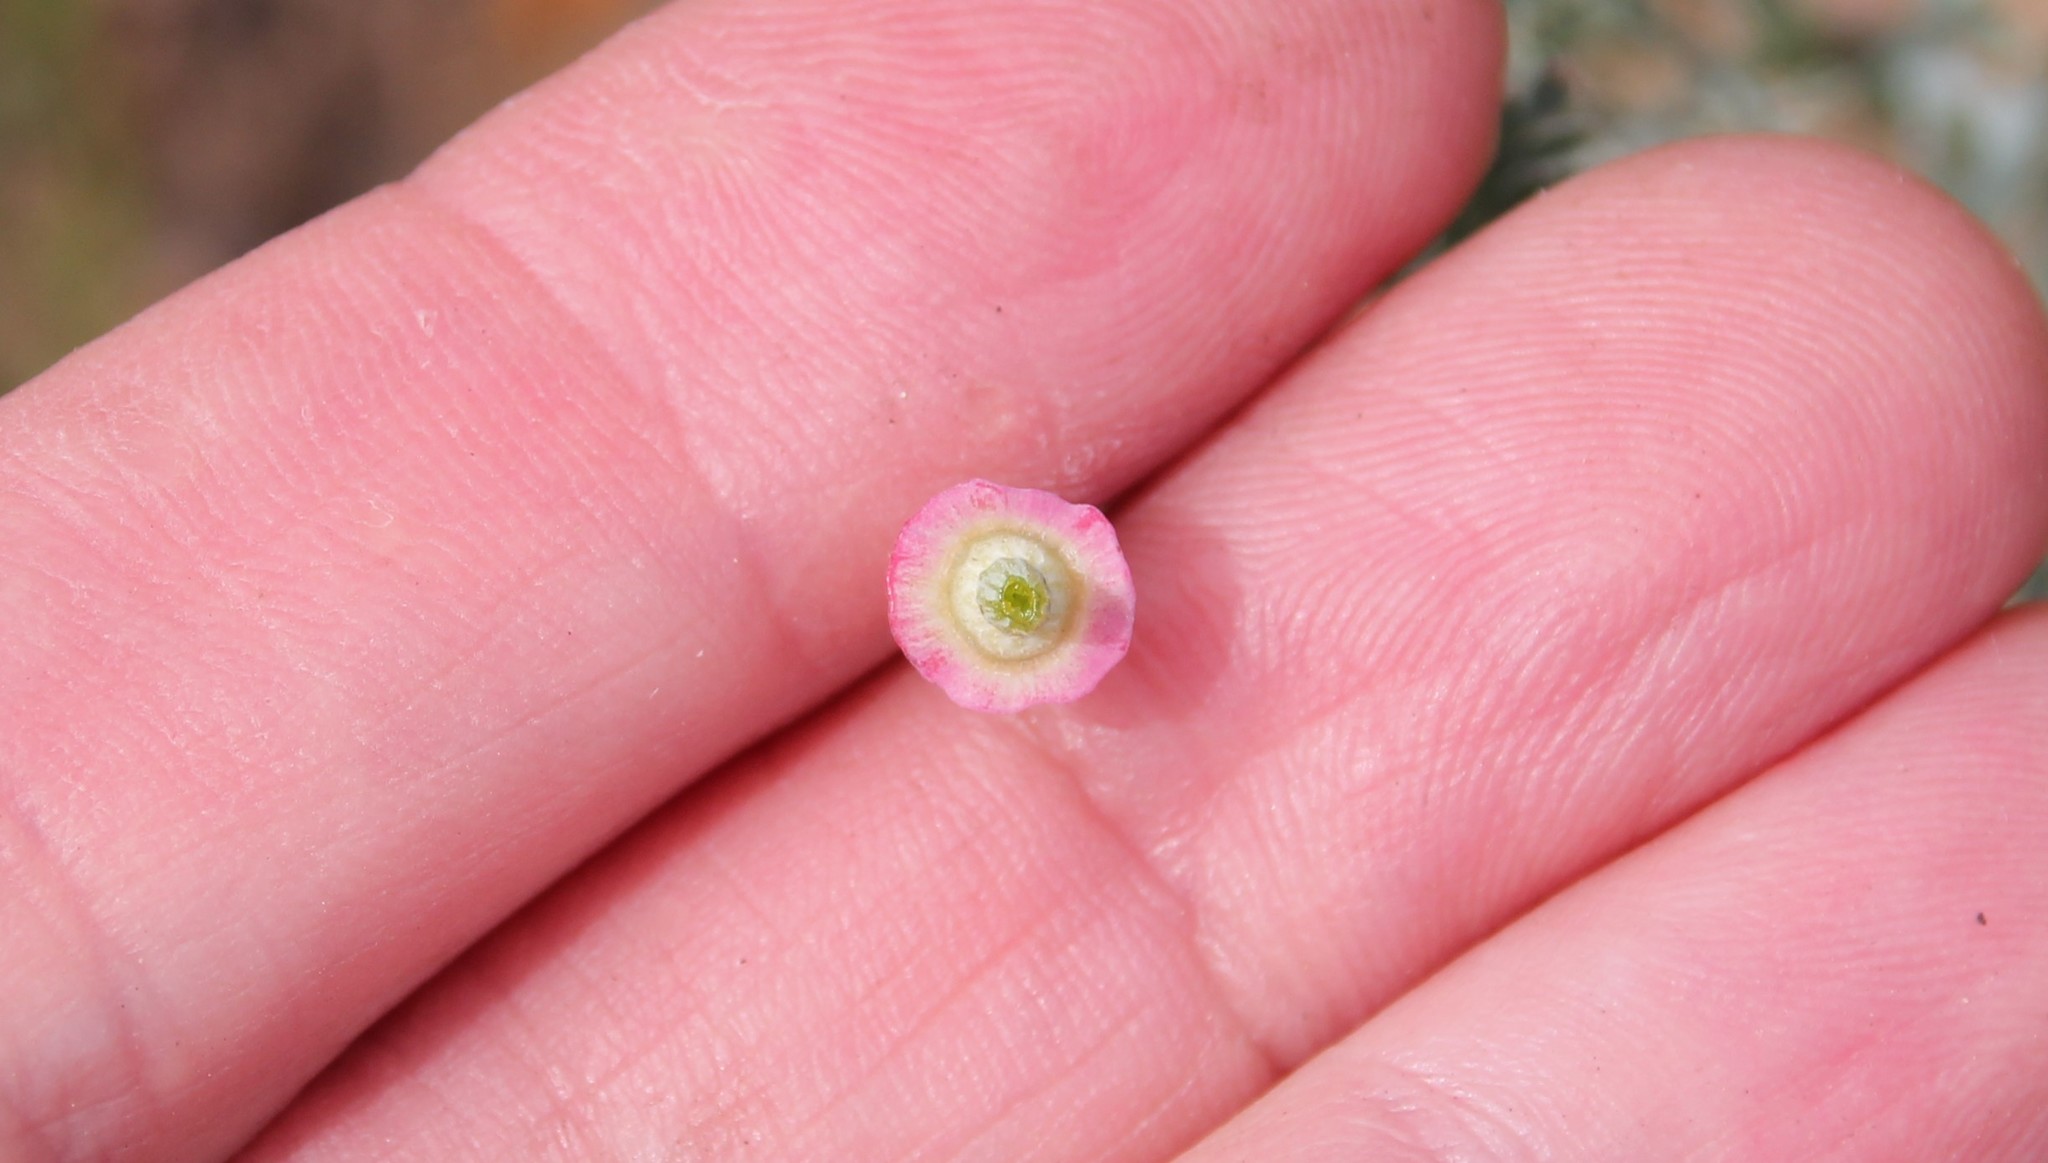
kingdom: Plantae
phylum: Tracheophyta
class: Magnoliopsida
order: Ranunculales
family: Papaveraceae
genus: Eschscholzia
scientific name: Eschscholzia californica
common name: California poppy
